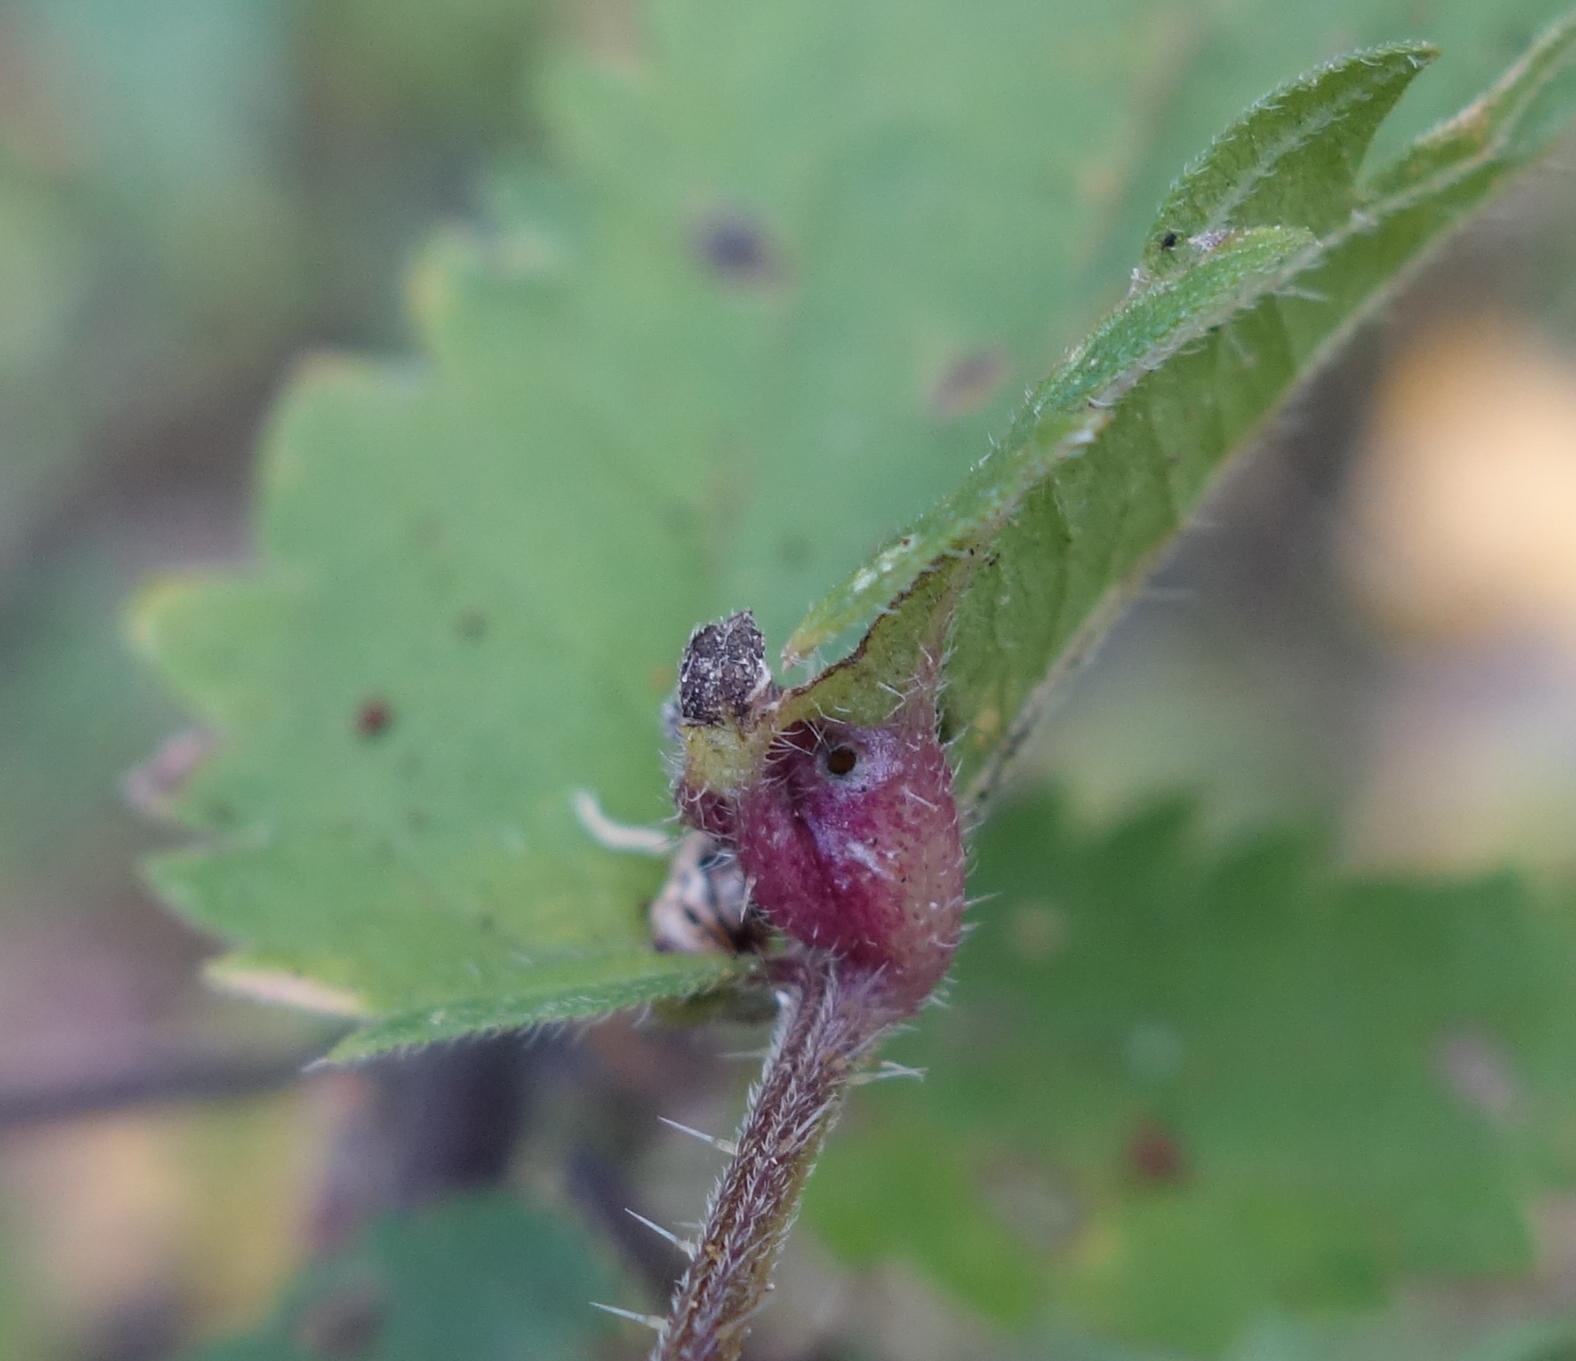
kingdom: Animalia
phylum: Arthropoda
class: Insecta
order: Diptera
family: Cecidomyiidae
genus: Dasineura
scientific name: Dasineura urticae
